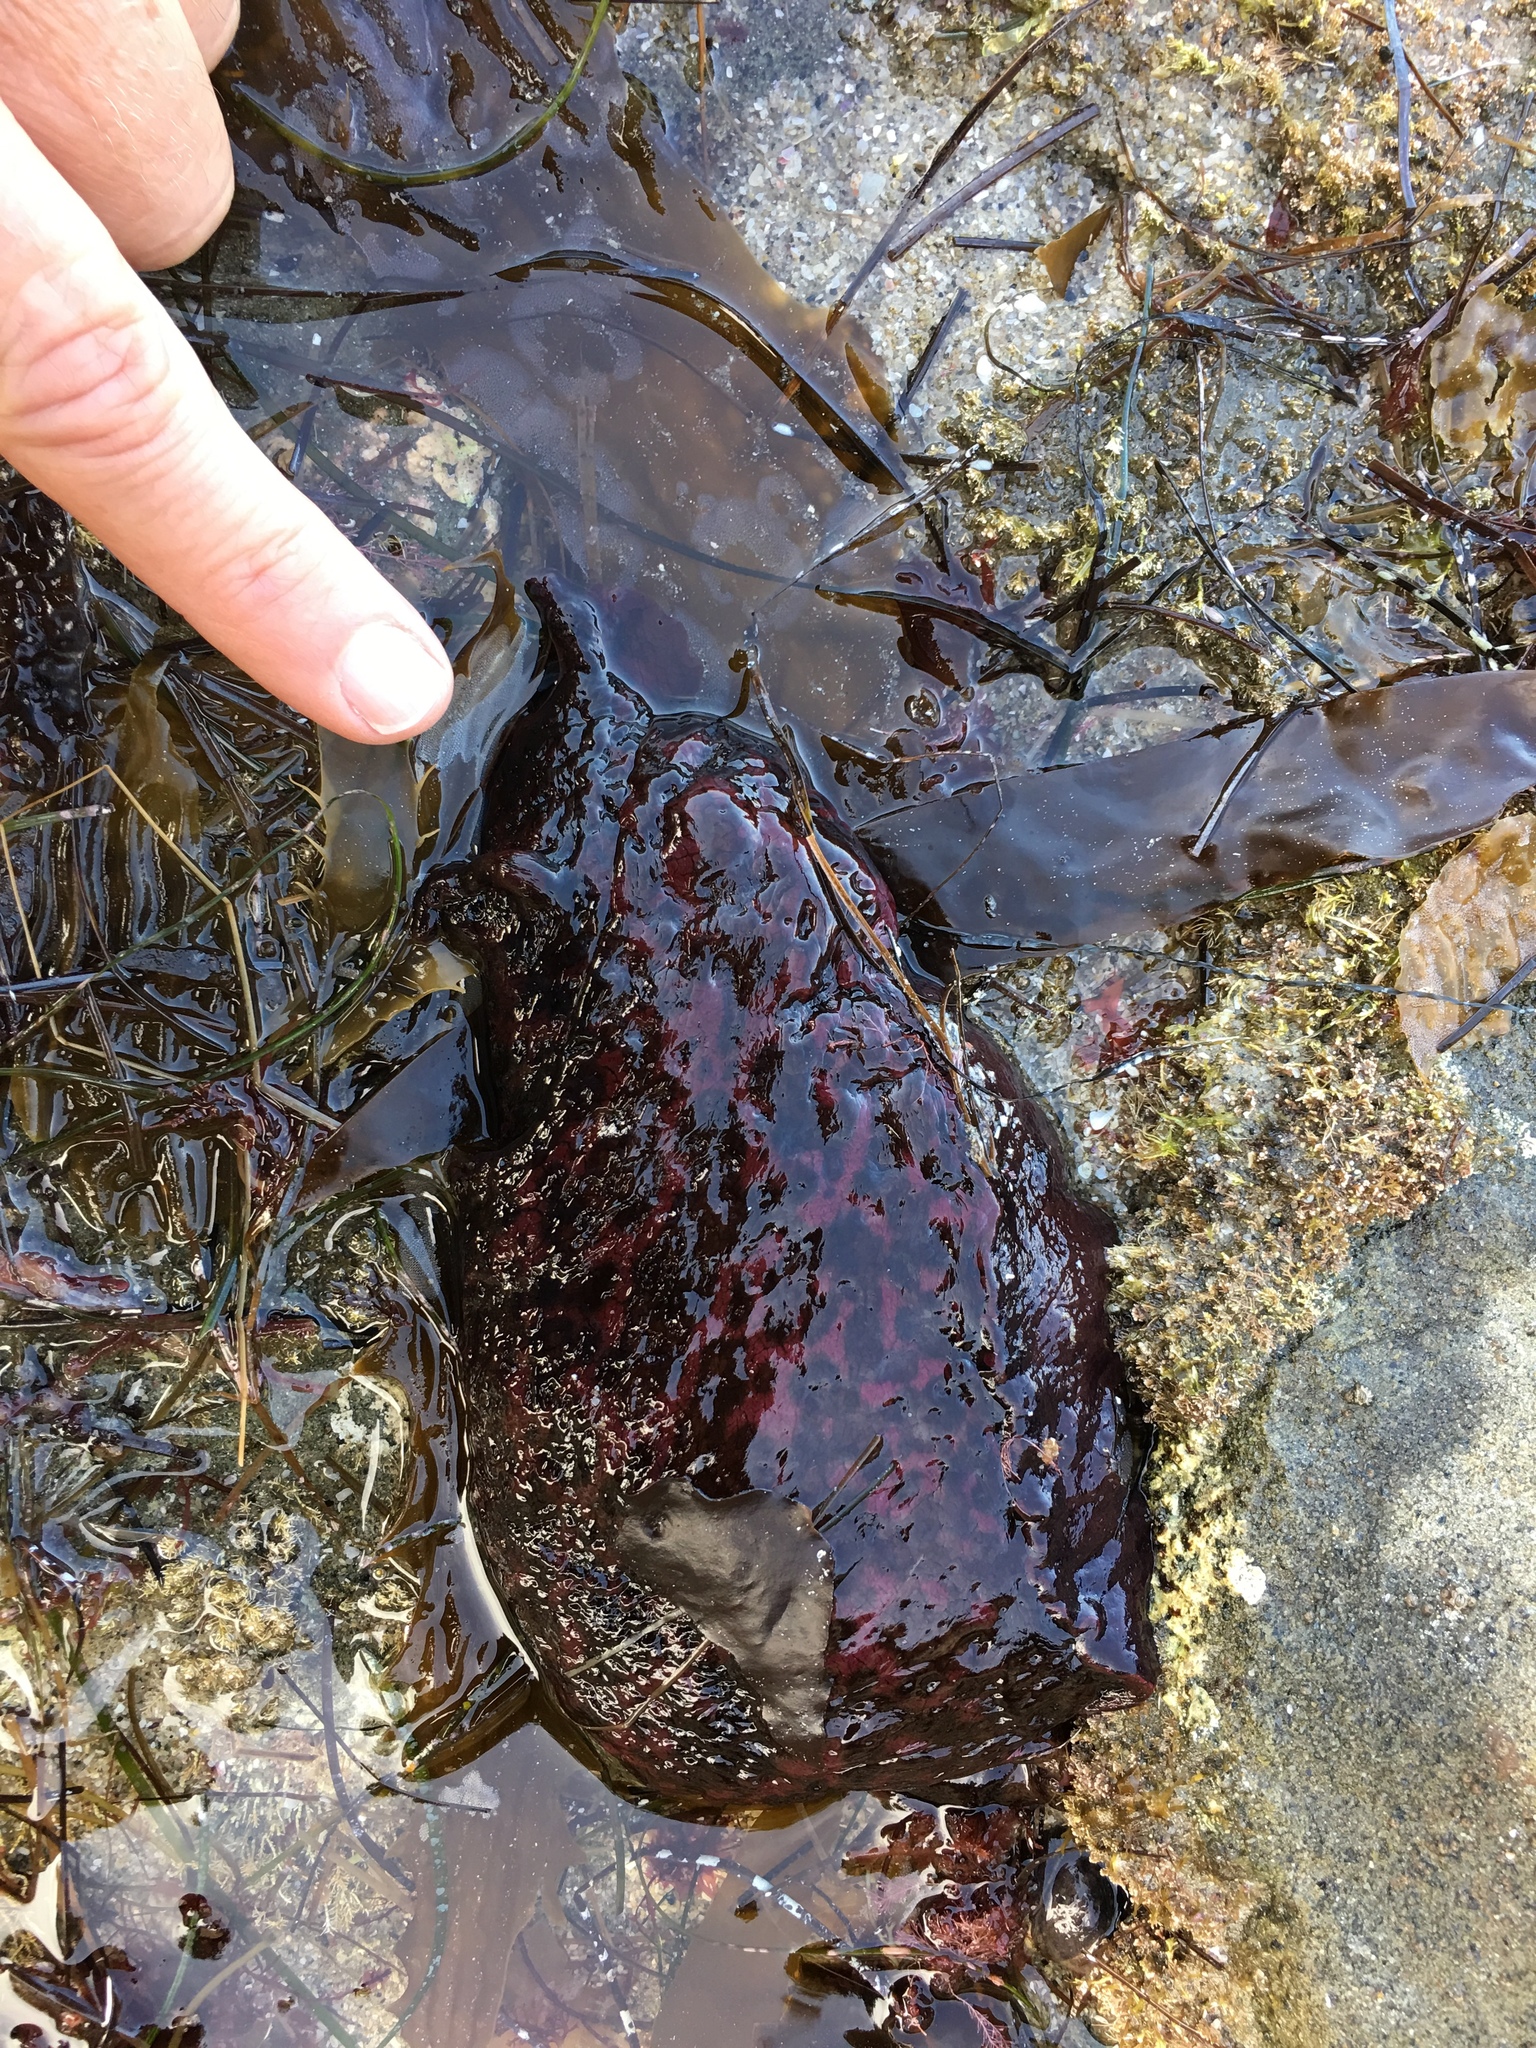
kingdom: Animalia
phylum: Mollusca
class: Gastropoda
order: Aplysiida
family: Aplysiidae
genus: Aplysia
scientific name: Aplysia californica
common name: California seahare
